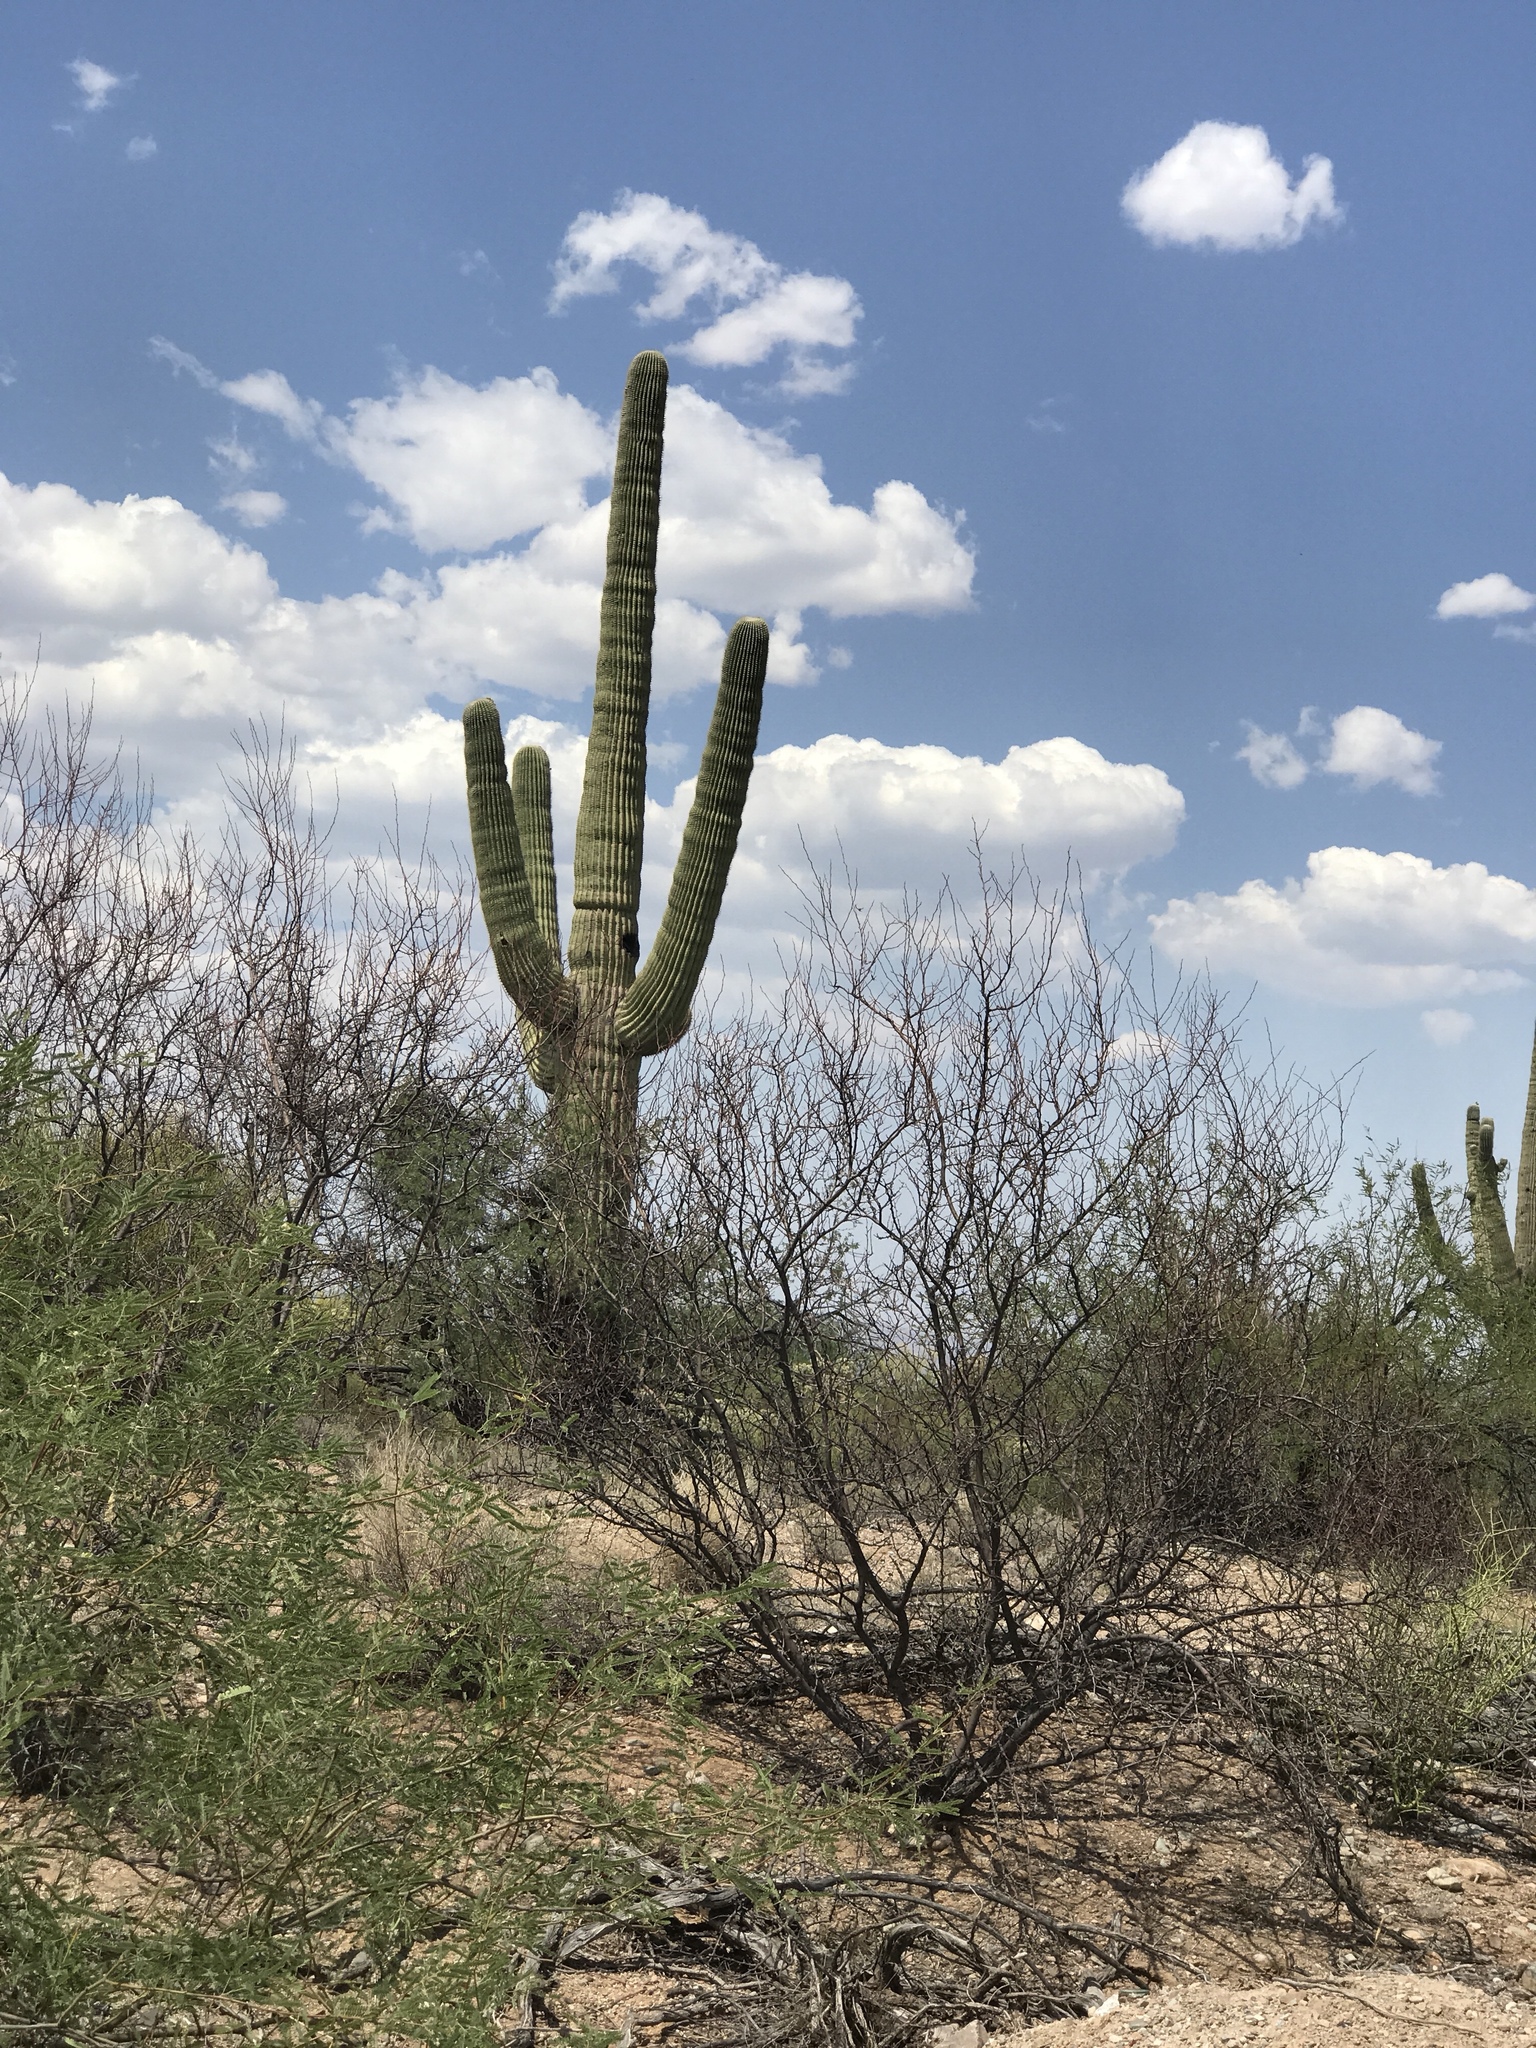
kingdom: Plantae
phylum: Tracheophyta
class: Magnoliopsida
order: Caryophyllales
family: Cactaceae
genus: Carnegiea
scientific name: Carnegiea gigantea
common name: Saguaro
